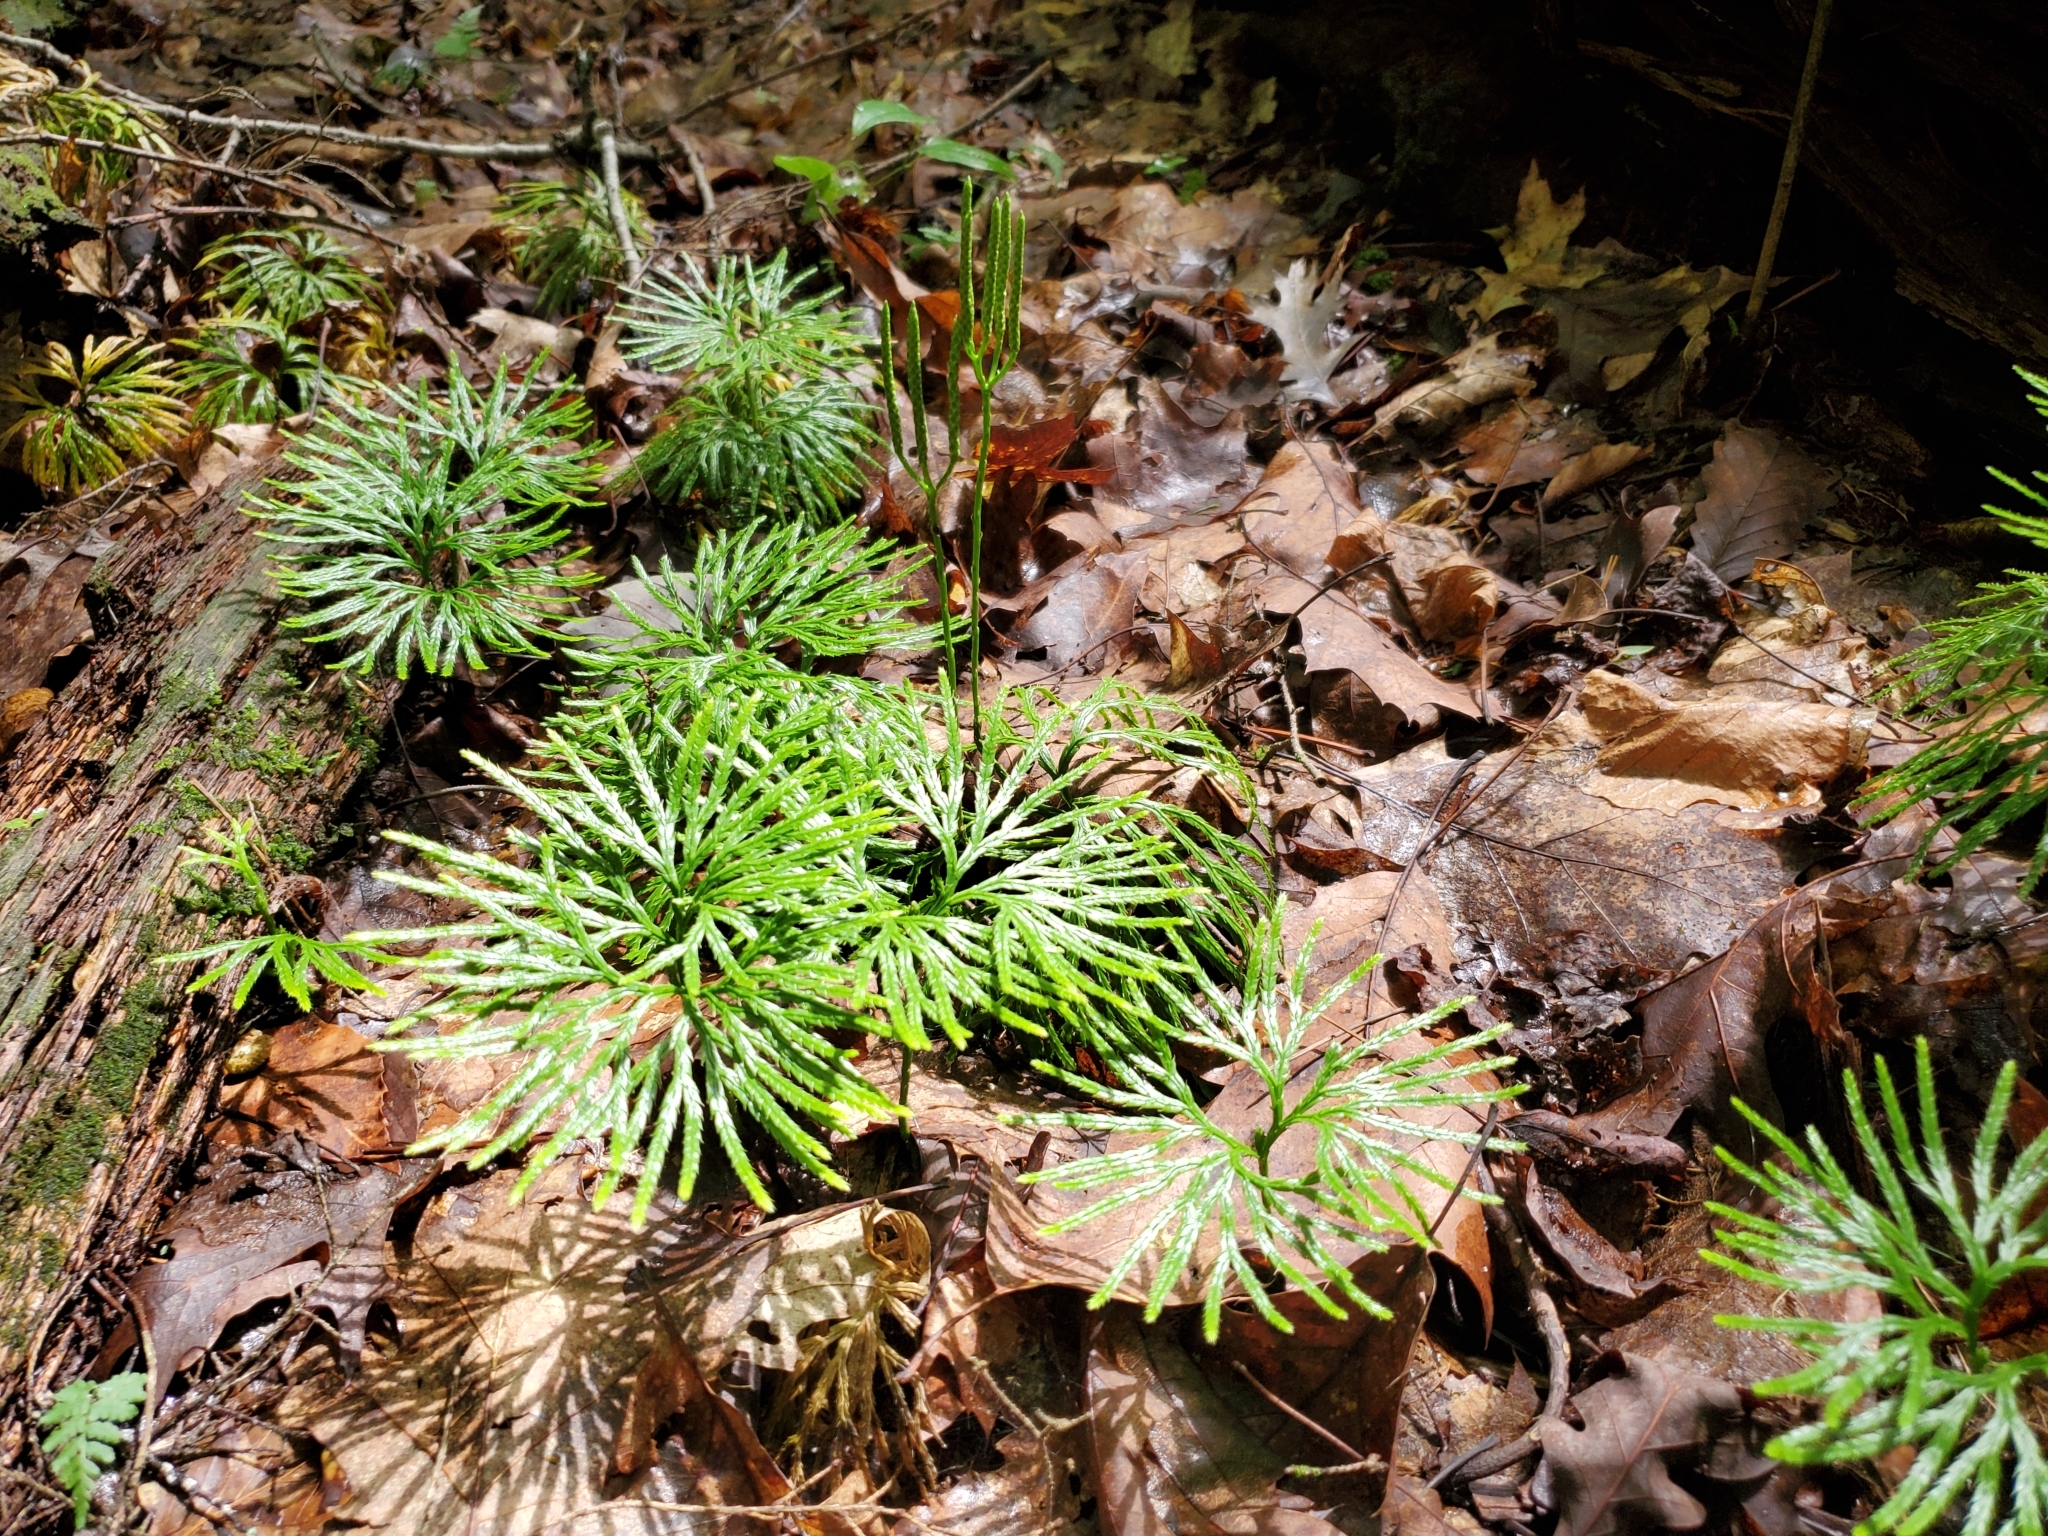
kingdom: Plantae
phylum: Tracheophyta
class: Lycopodiopsida
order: Lycopodiales
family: Lycopodiaceae
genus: Diphasiastrum
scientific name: Diphasiastrum digitatum
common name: Southern running-pine
